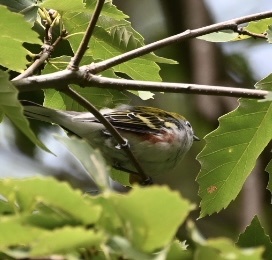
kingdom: Animalia
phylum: Chordata
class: Aves
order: Passeriformes
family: Parulidae
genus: Setophaga
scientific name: Setophaga pensylvanica
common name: Chestnut-sided warbler
